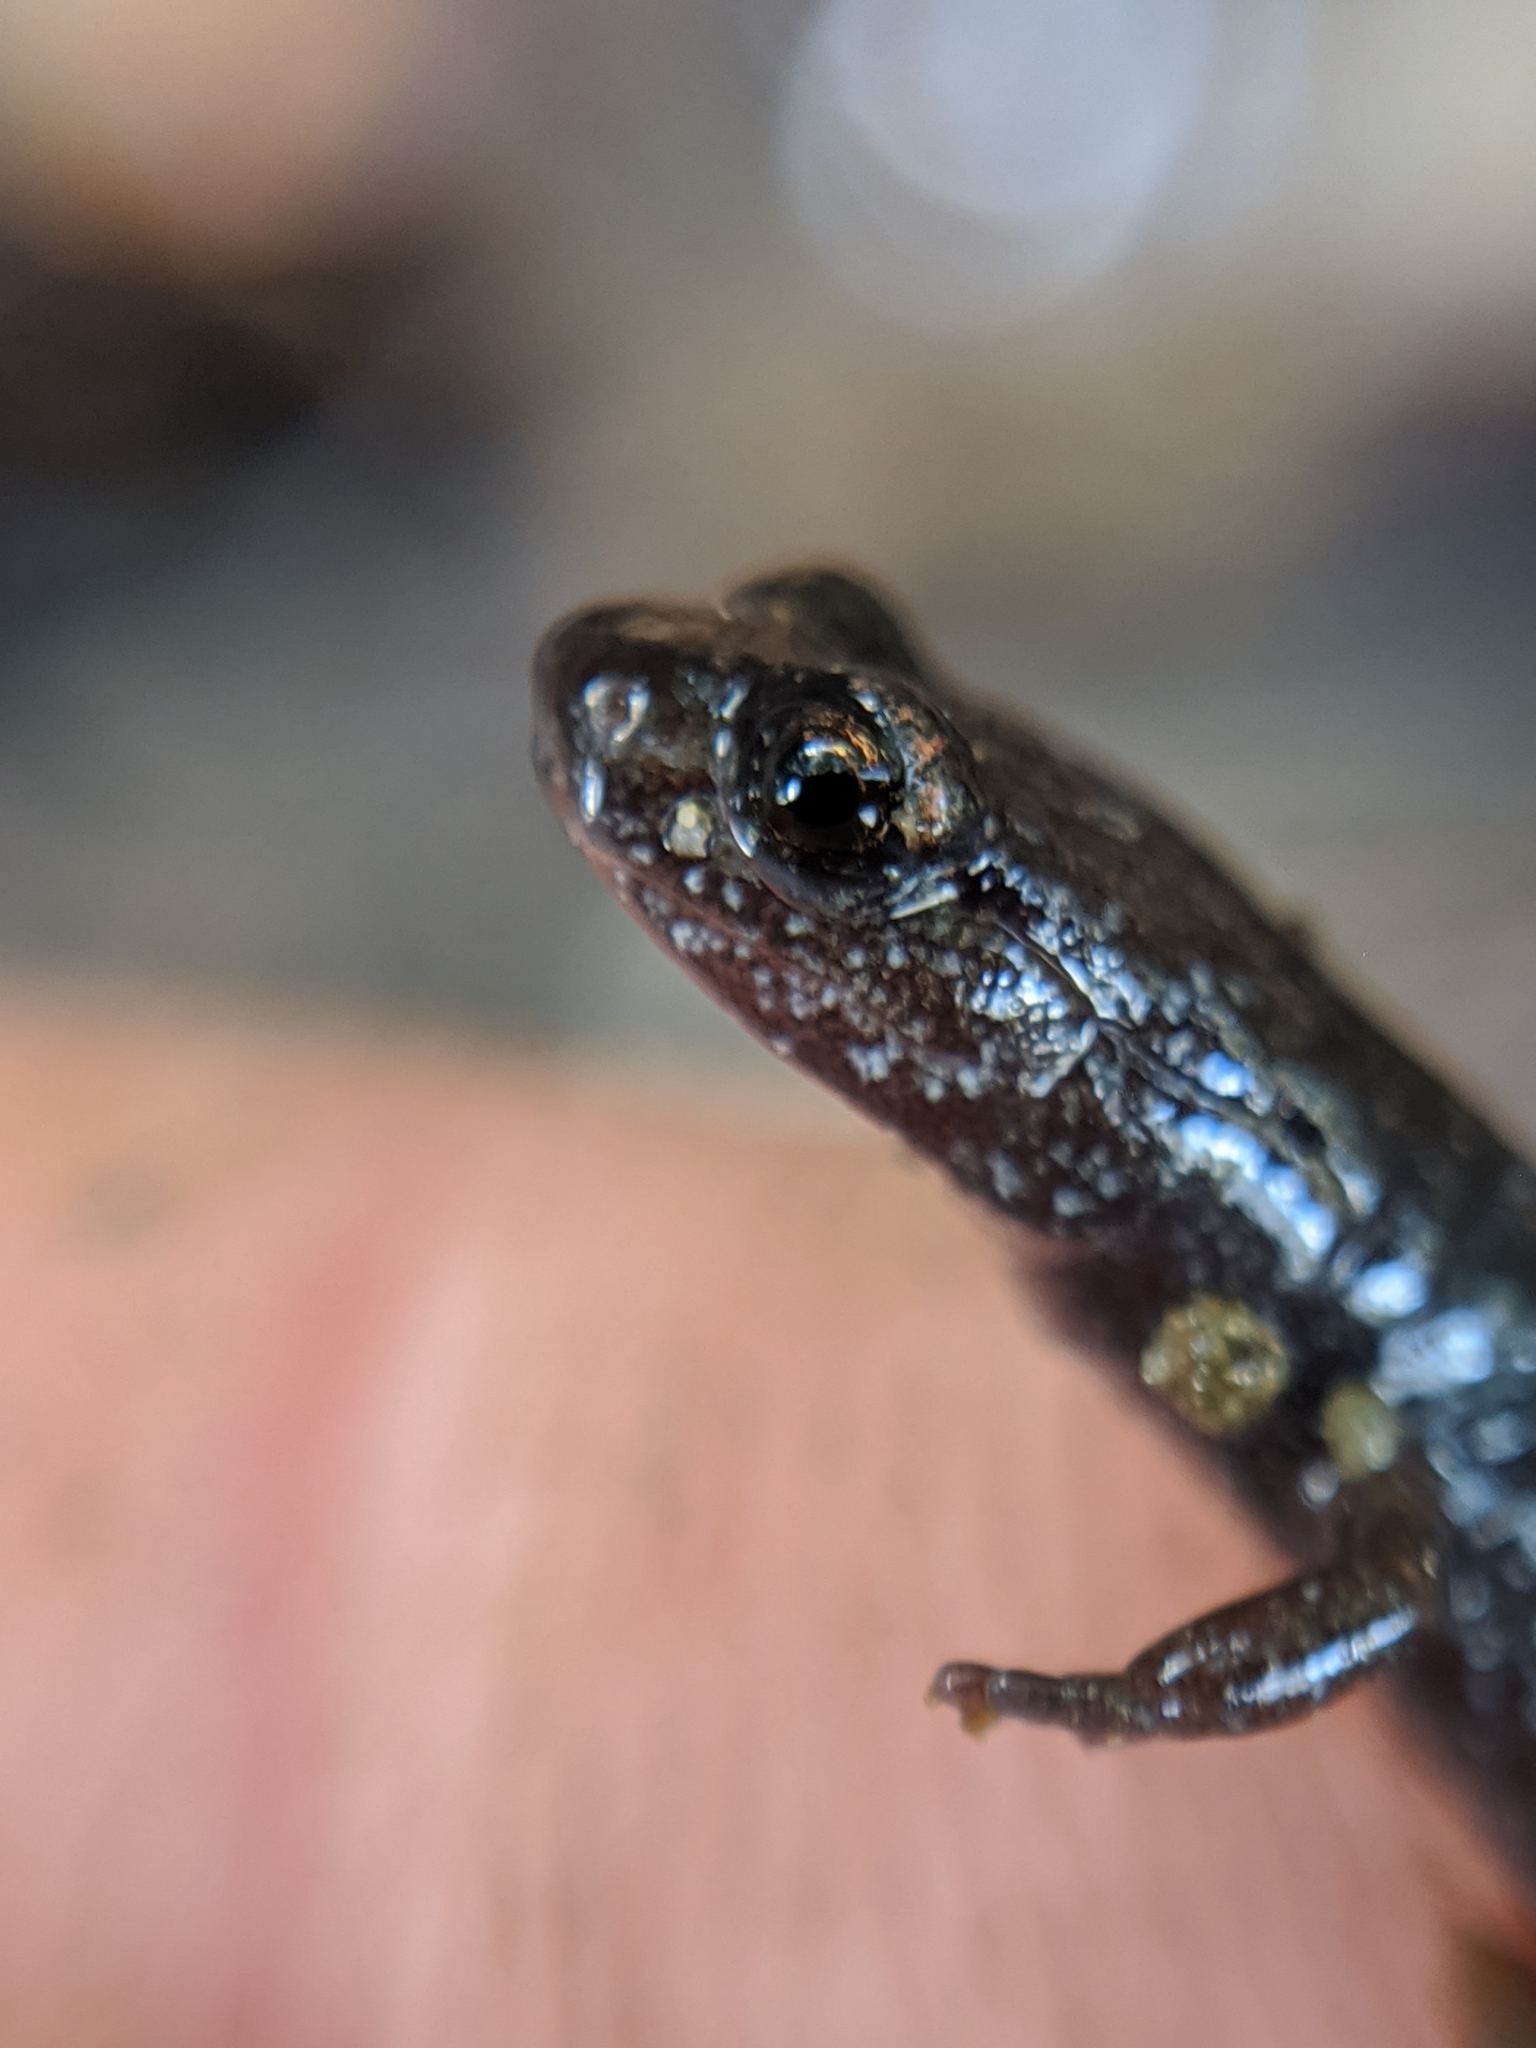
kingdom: Animalia
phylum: Chordata
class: Amphibia
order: Caudata
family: Plethodontidae
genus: Batrachoseps
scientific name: Batrachoseps incognitus
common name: San simeon slender salamander
